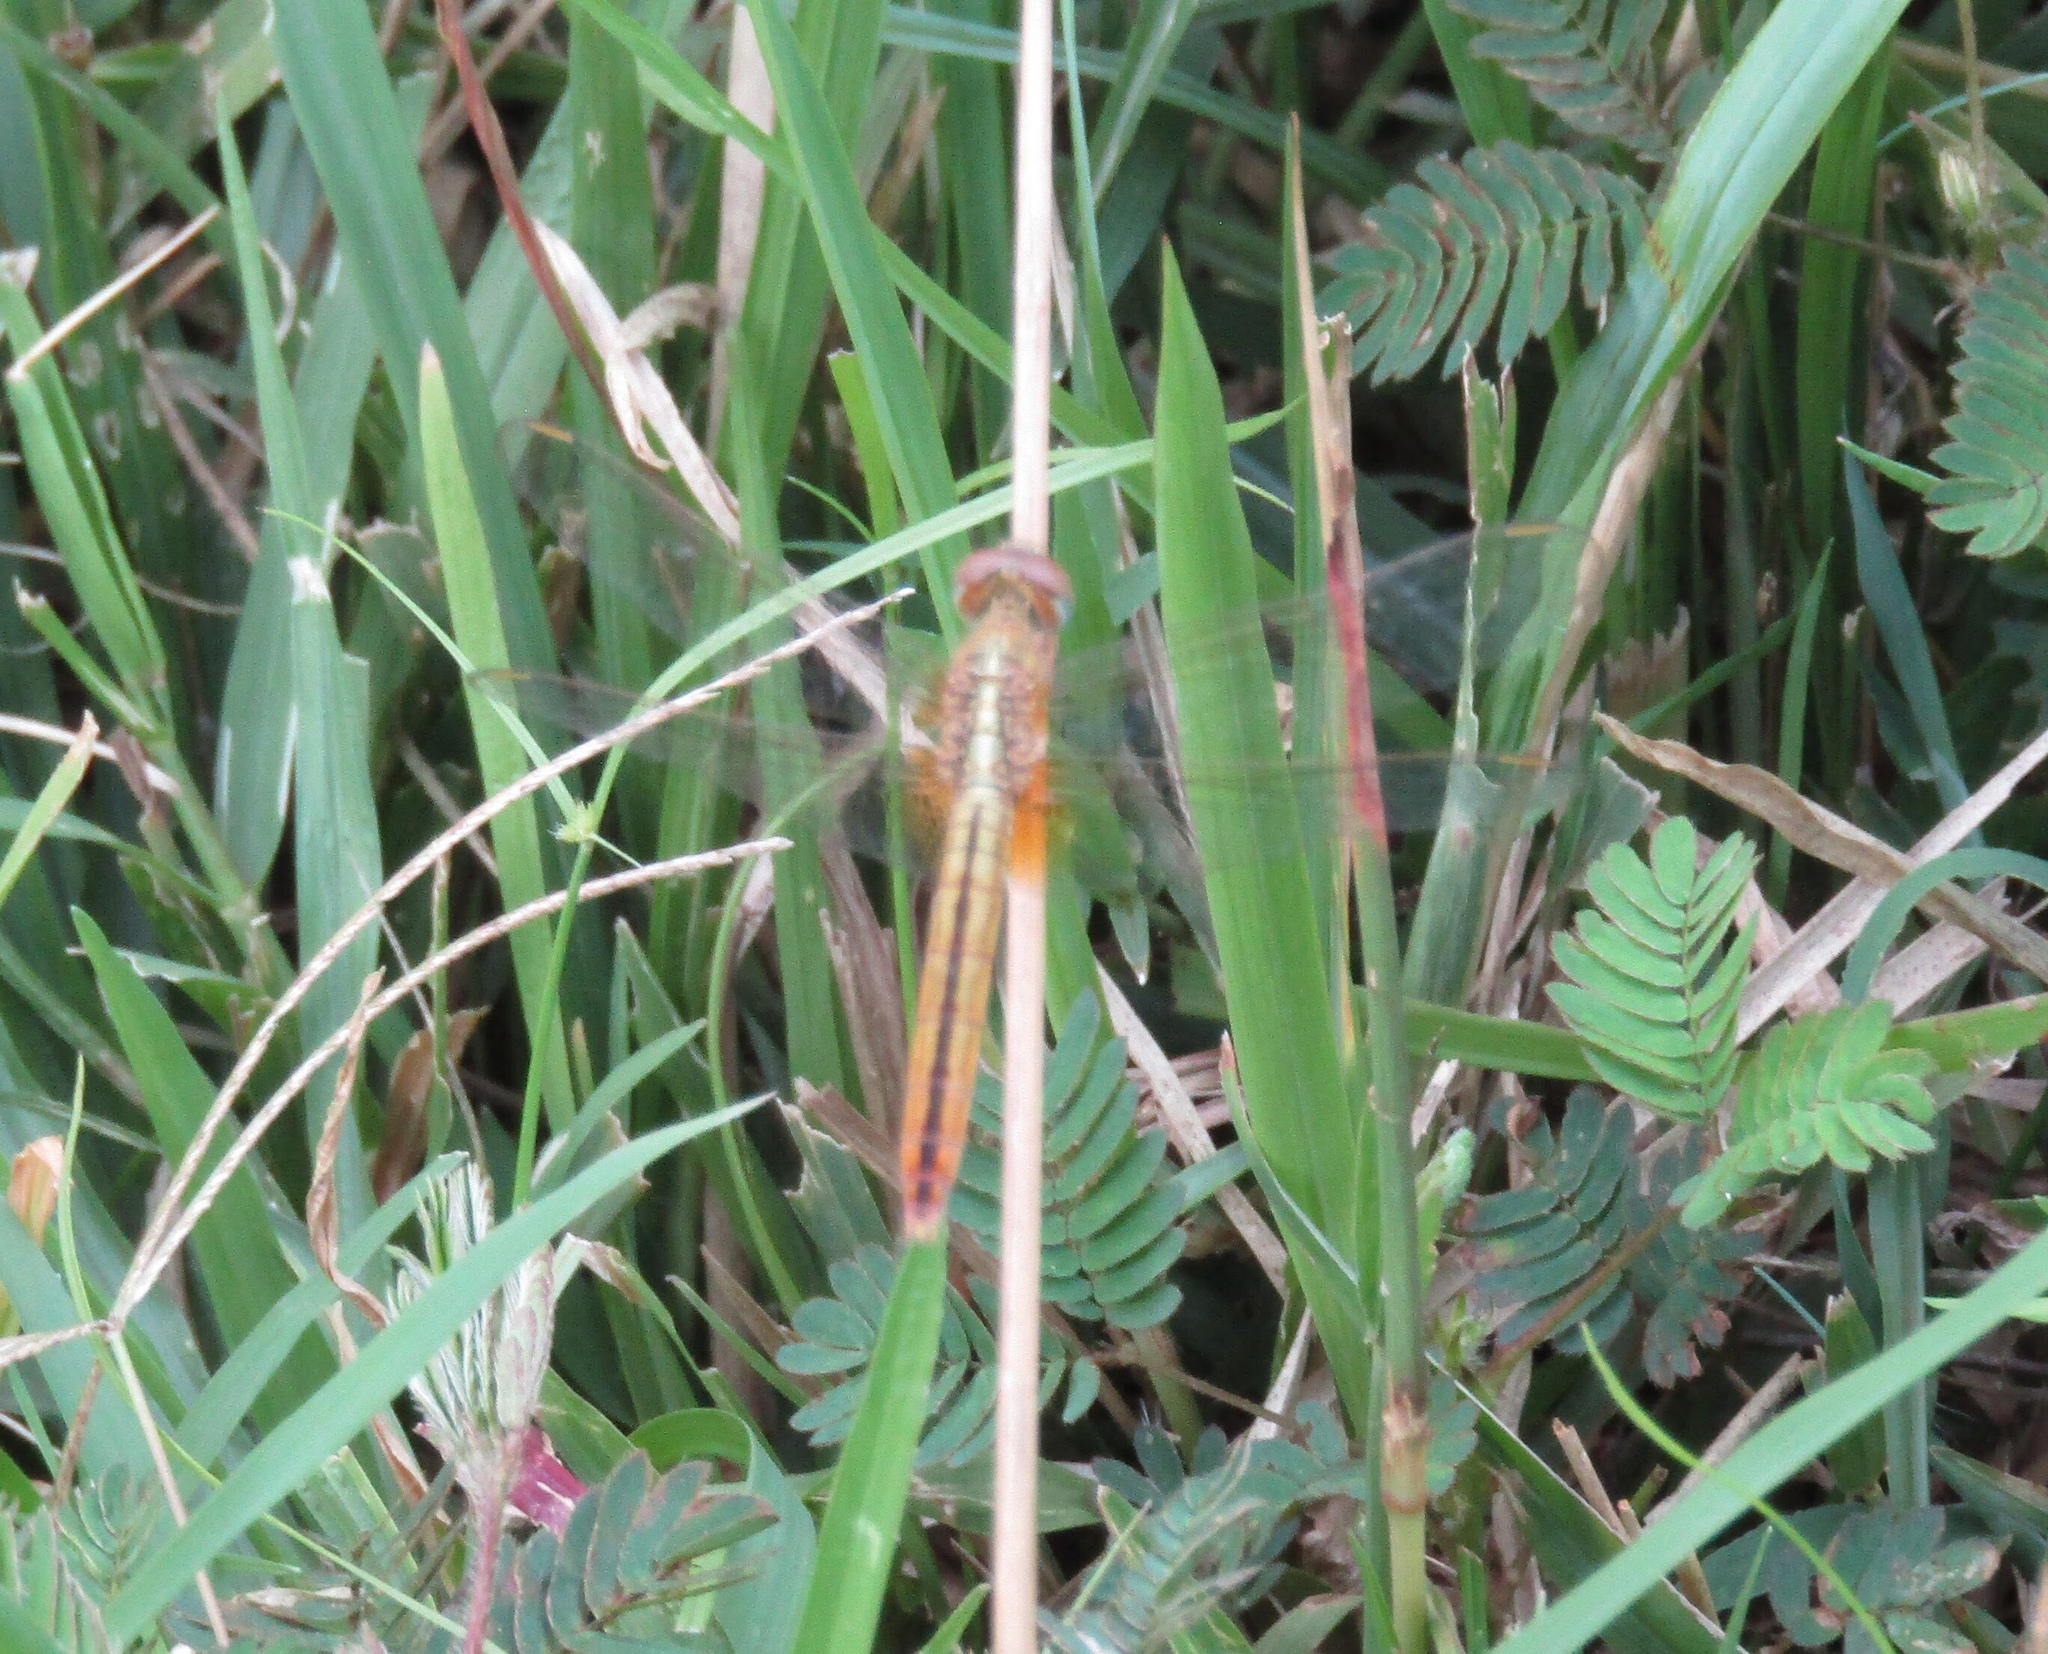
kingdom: Animalia
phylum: Arthropoda
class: Insecta
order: Odonata
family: Libellulidae
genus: Crocothemis
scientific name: Crocothemis servilia
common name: Scarlet skimmer
